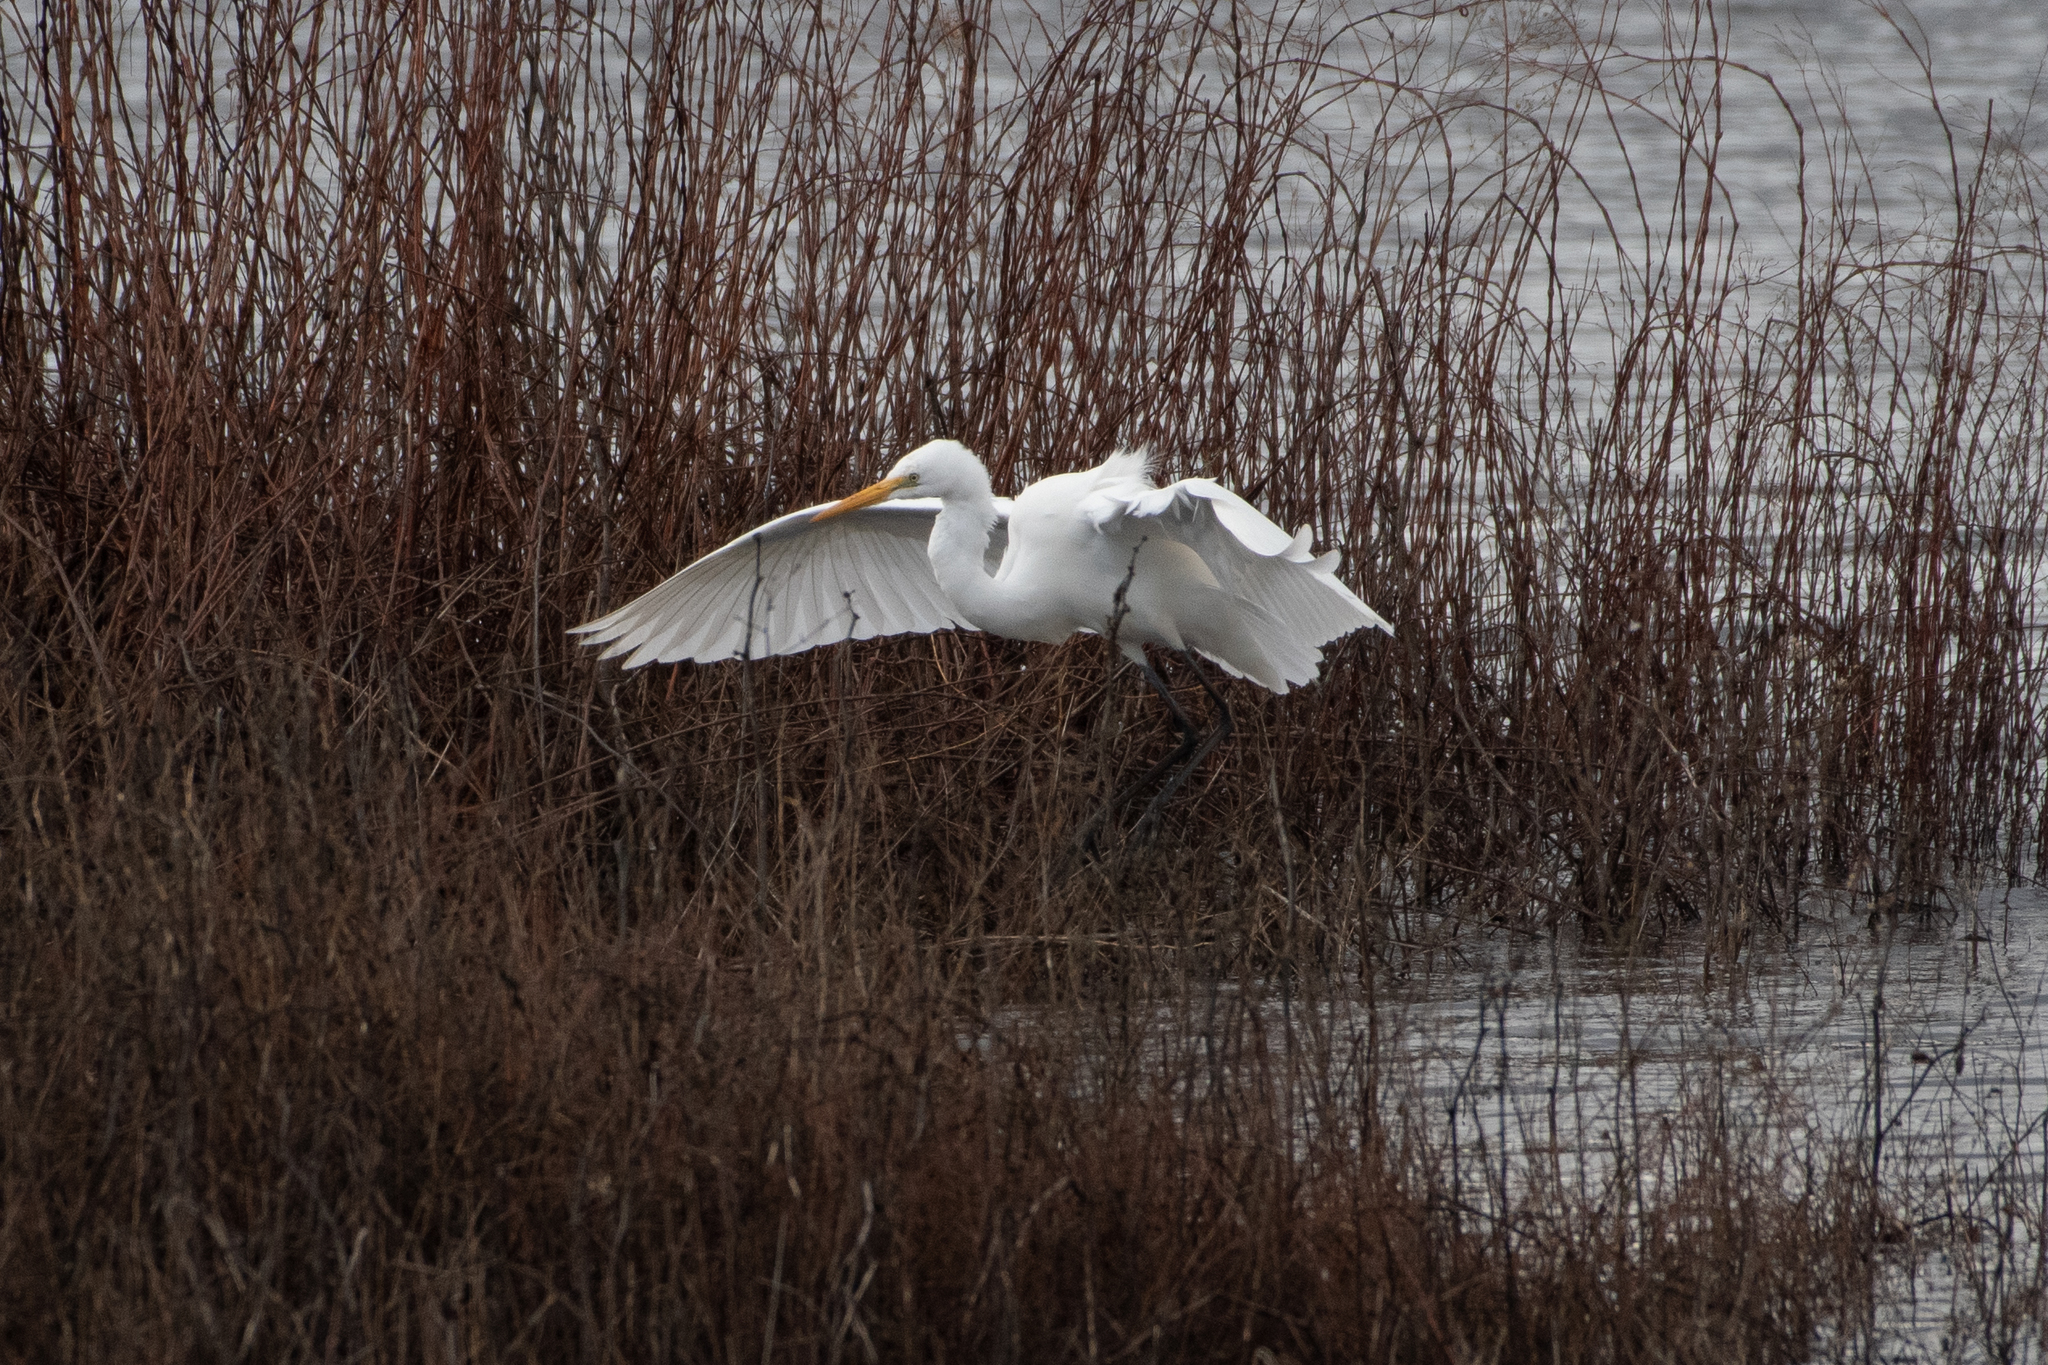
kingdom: Animalia
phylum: Chordata
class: Aves
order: Pelecaniformes
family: Ardeidae
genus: Ardea
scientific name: Ardea alba
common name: Great egret
